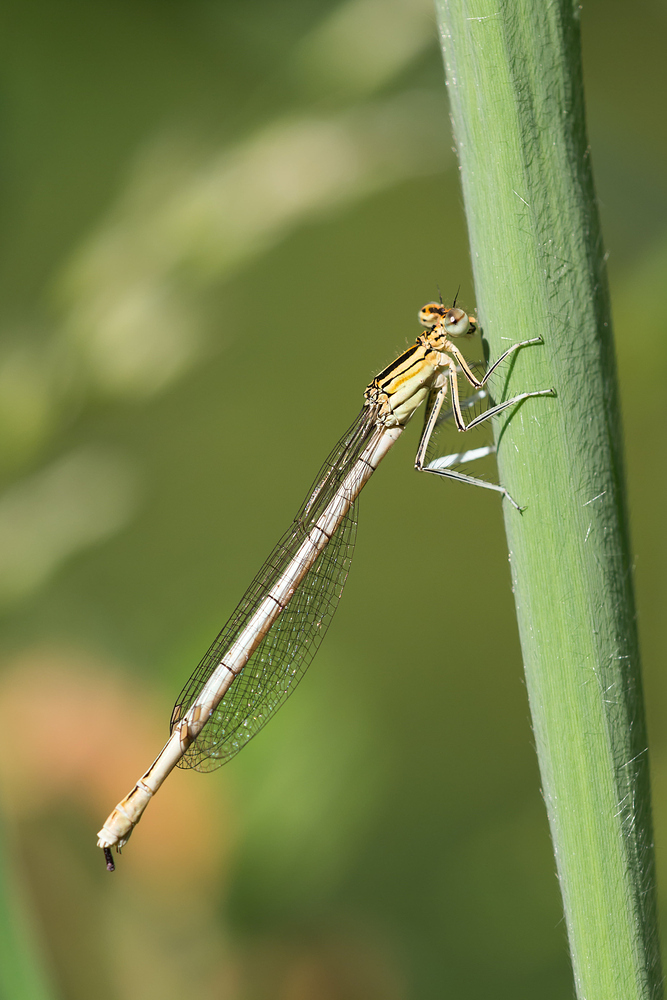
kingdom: Animalia
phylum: Arthropoda
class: Insecta
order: Odonata
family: Platycnemididae
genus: Platycnemis
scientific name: Platycnemis pennipes
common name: White-legged damselfly
